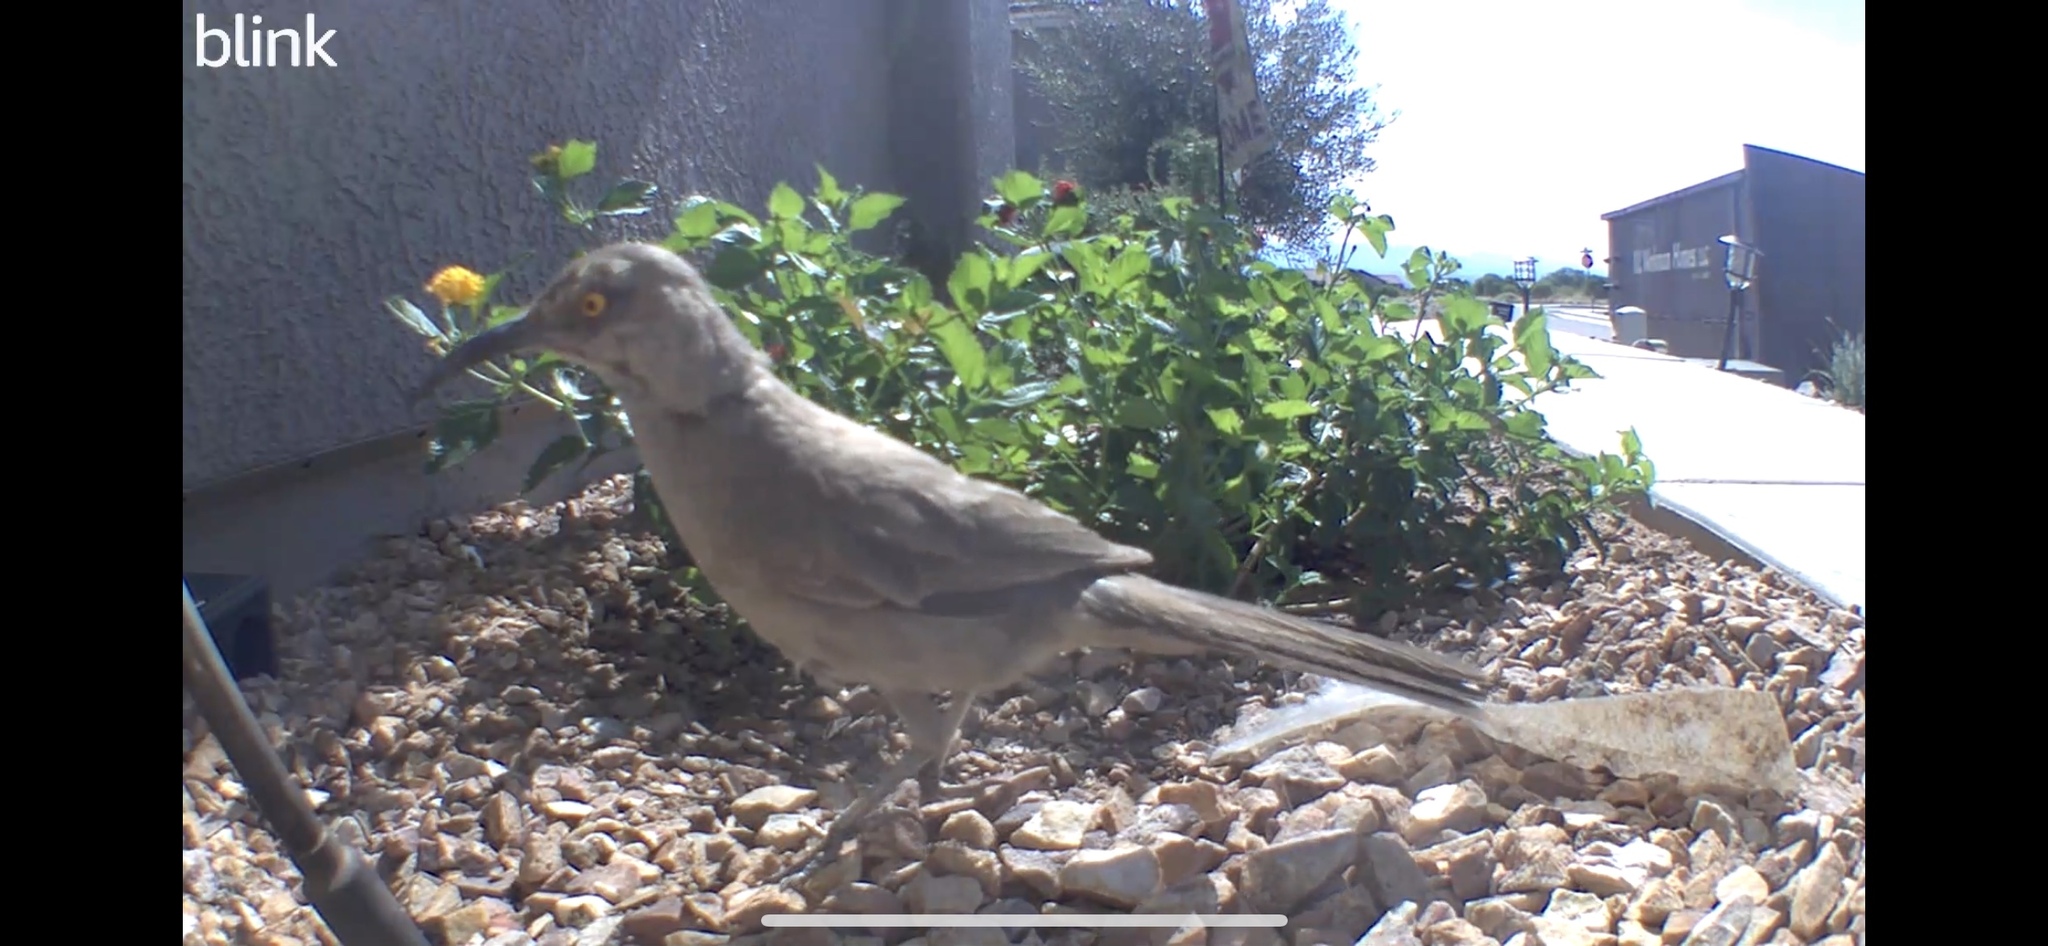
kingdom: Animalia
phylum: Chordata
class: Aves
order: Passeriformes
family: Mimidae
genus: Toxostoma
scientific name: Toxostoma curvirostre
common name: Curve-billed thrasher
